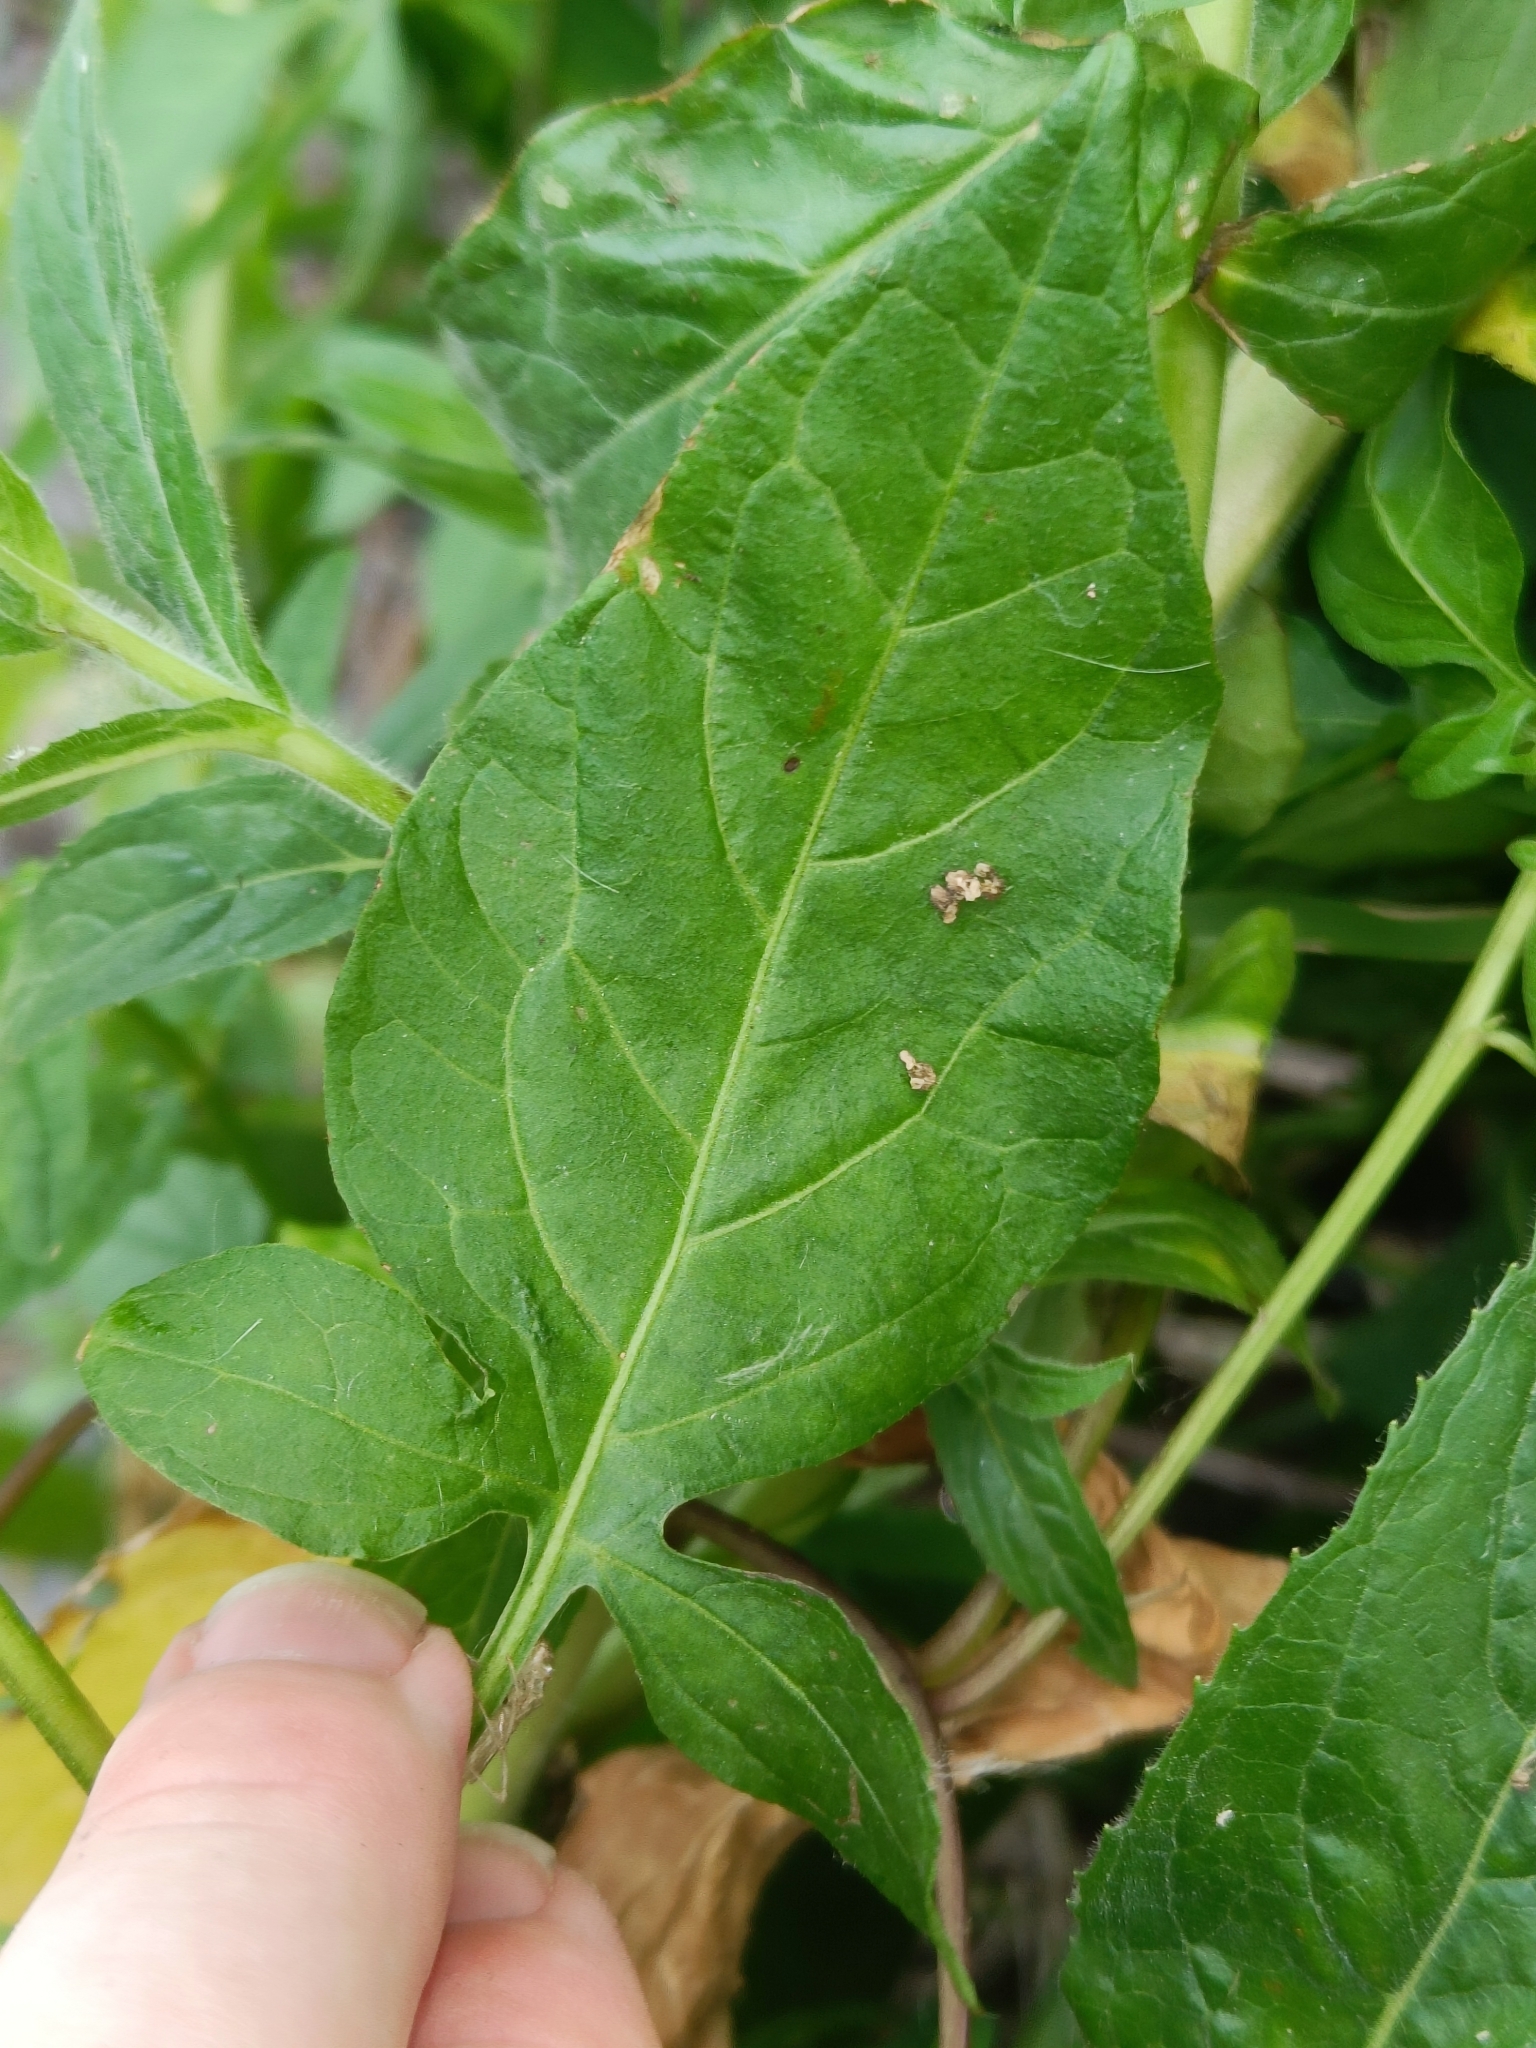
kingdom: Plantae
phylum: Tracheophyta
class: Magnoliopsida
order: Solanales
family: Solanaceae
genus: Solanum
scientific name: Solanum dulcamara
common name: Climbing nightshade
